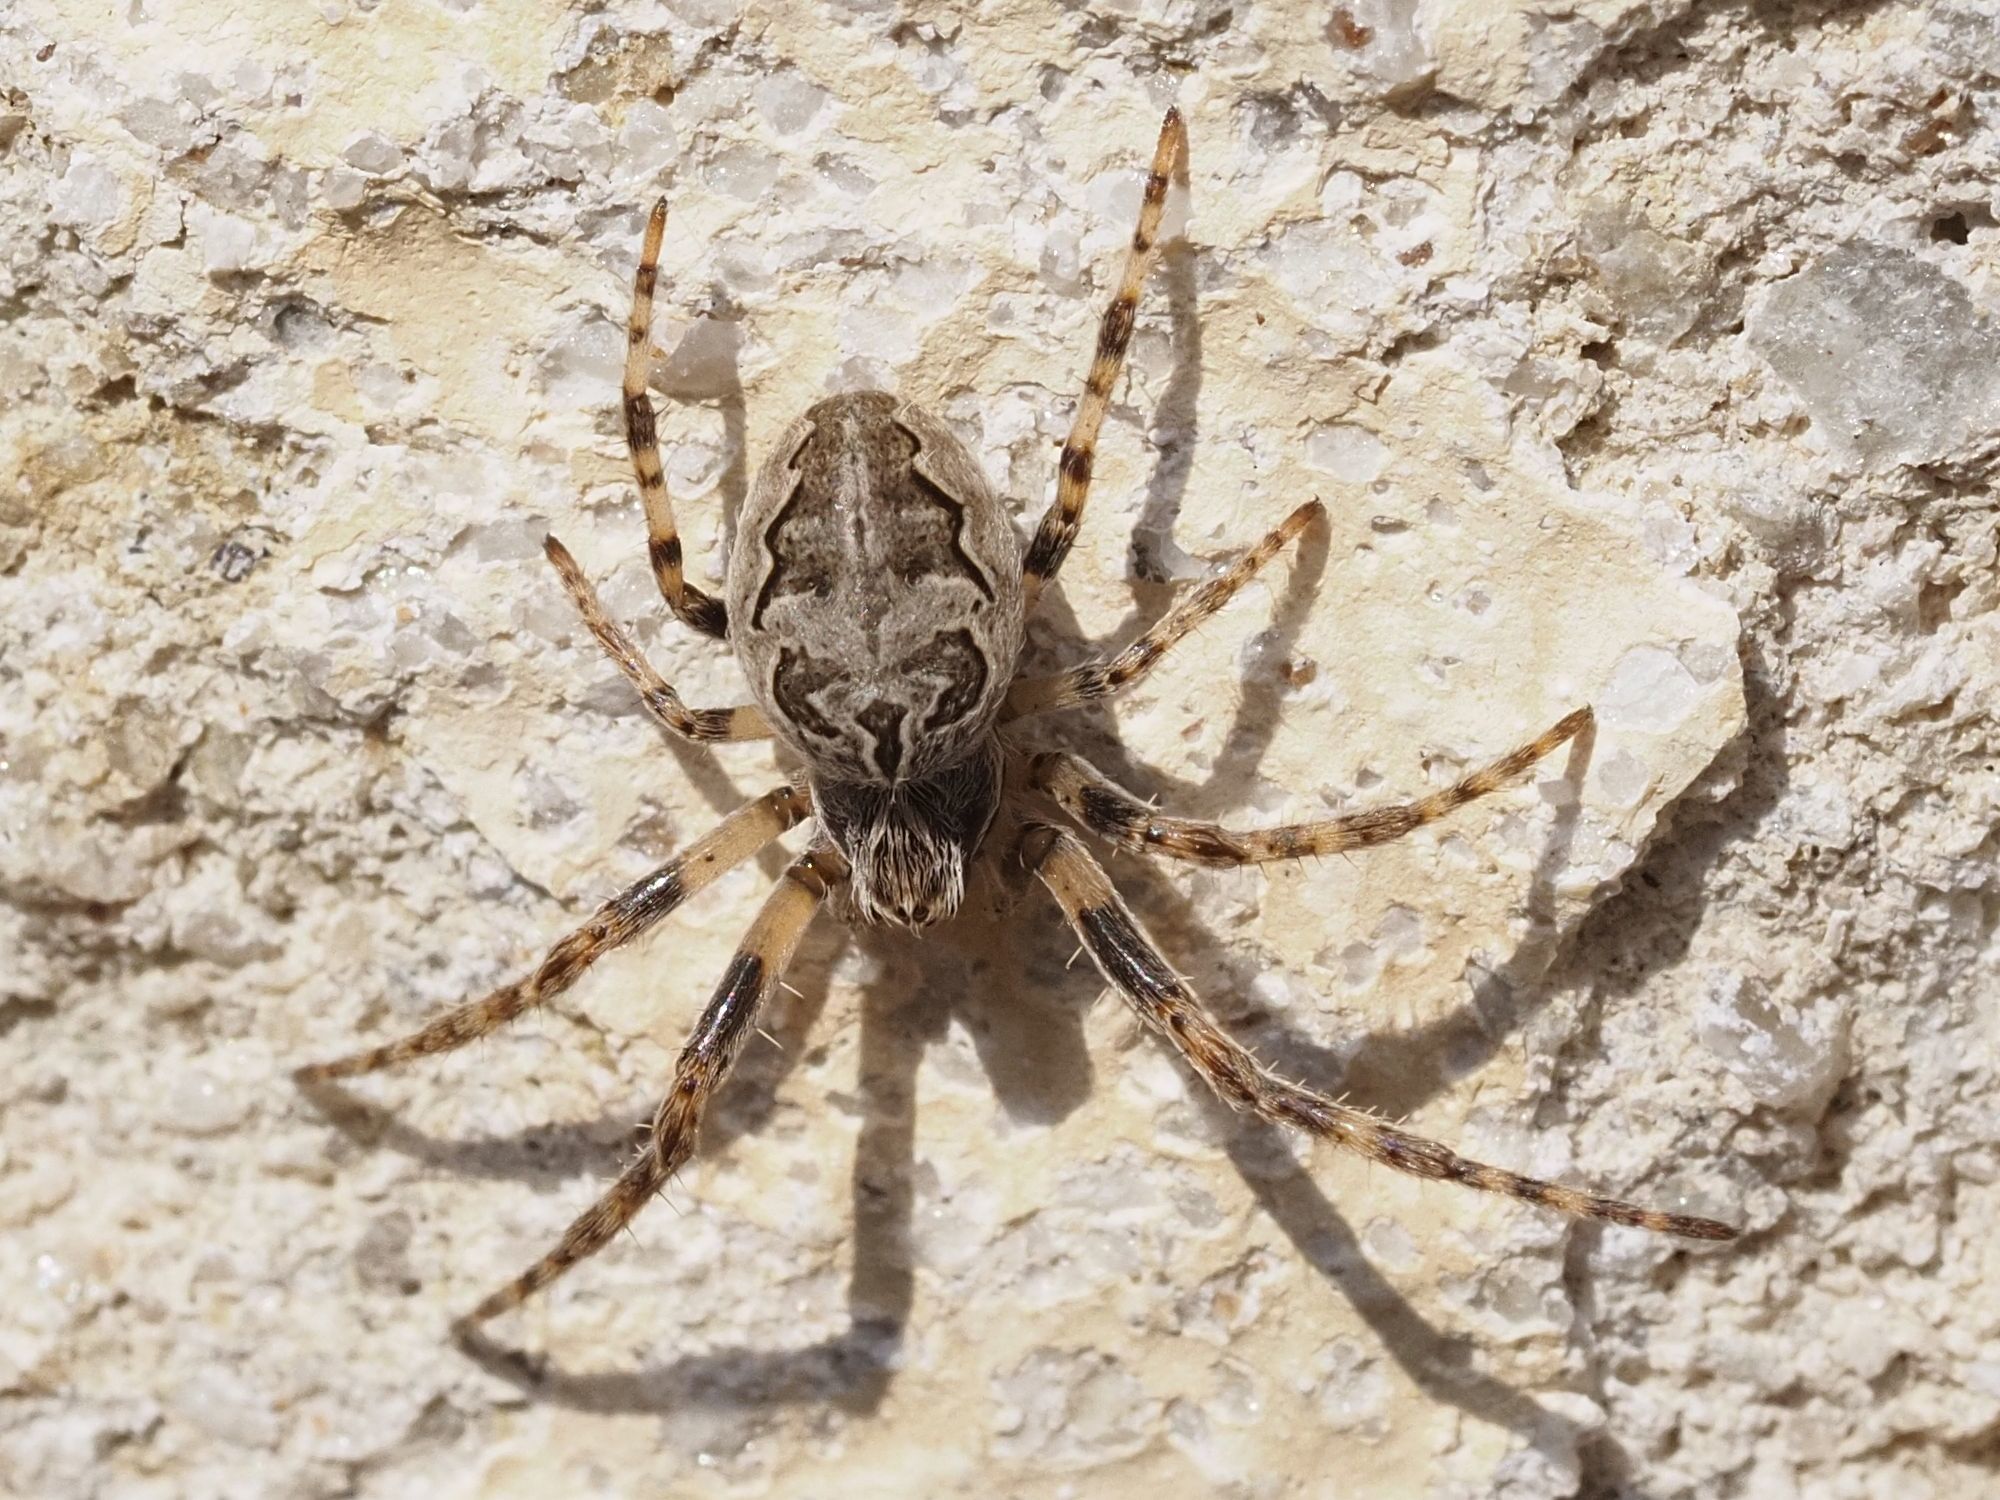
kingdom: Animalia
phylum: Arthropoda
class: Arachnida
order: Araneae
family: Araneidae
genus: Larinioides
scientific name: Larinioides sclopetarius
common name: Bridge orbweaver
